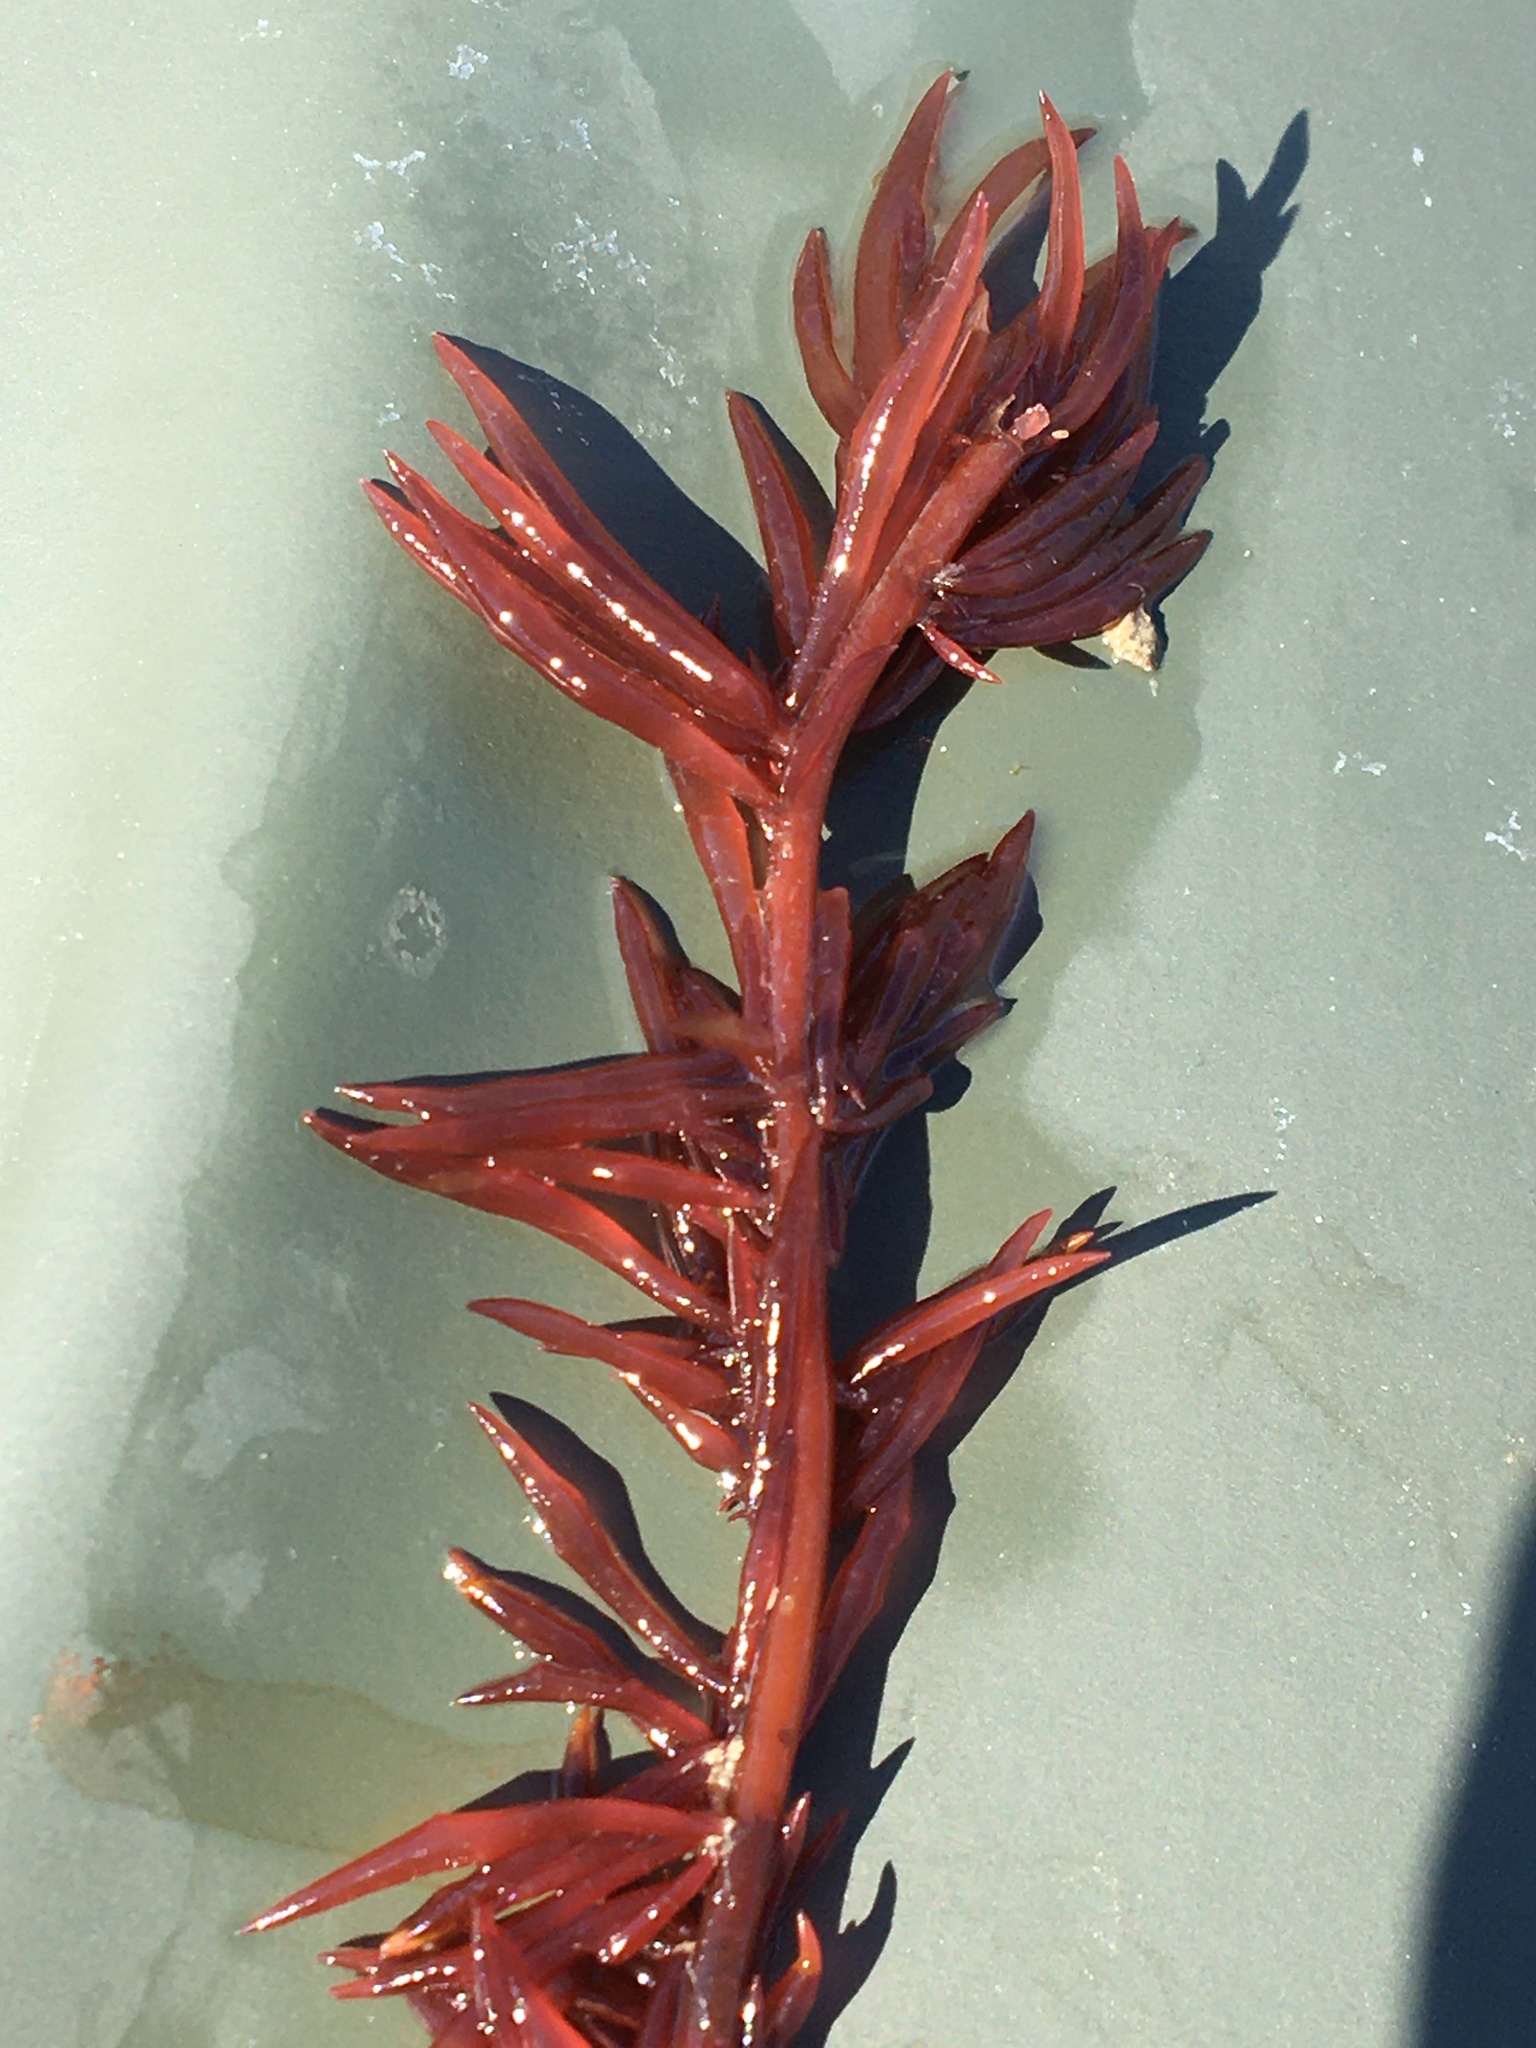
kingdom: Plantae
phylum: Rhodophyta
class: Florideophyceae
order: Gigartinales
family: Solieriaceae
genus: Solieria
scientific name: Solieria chordalis
